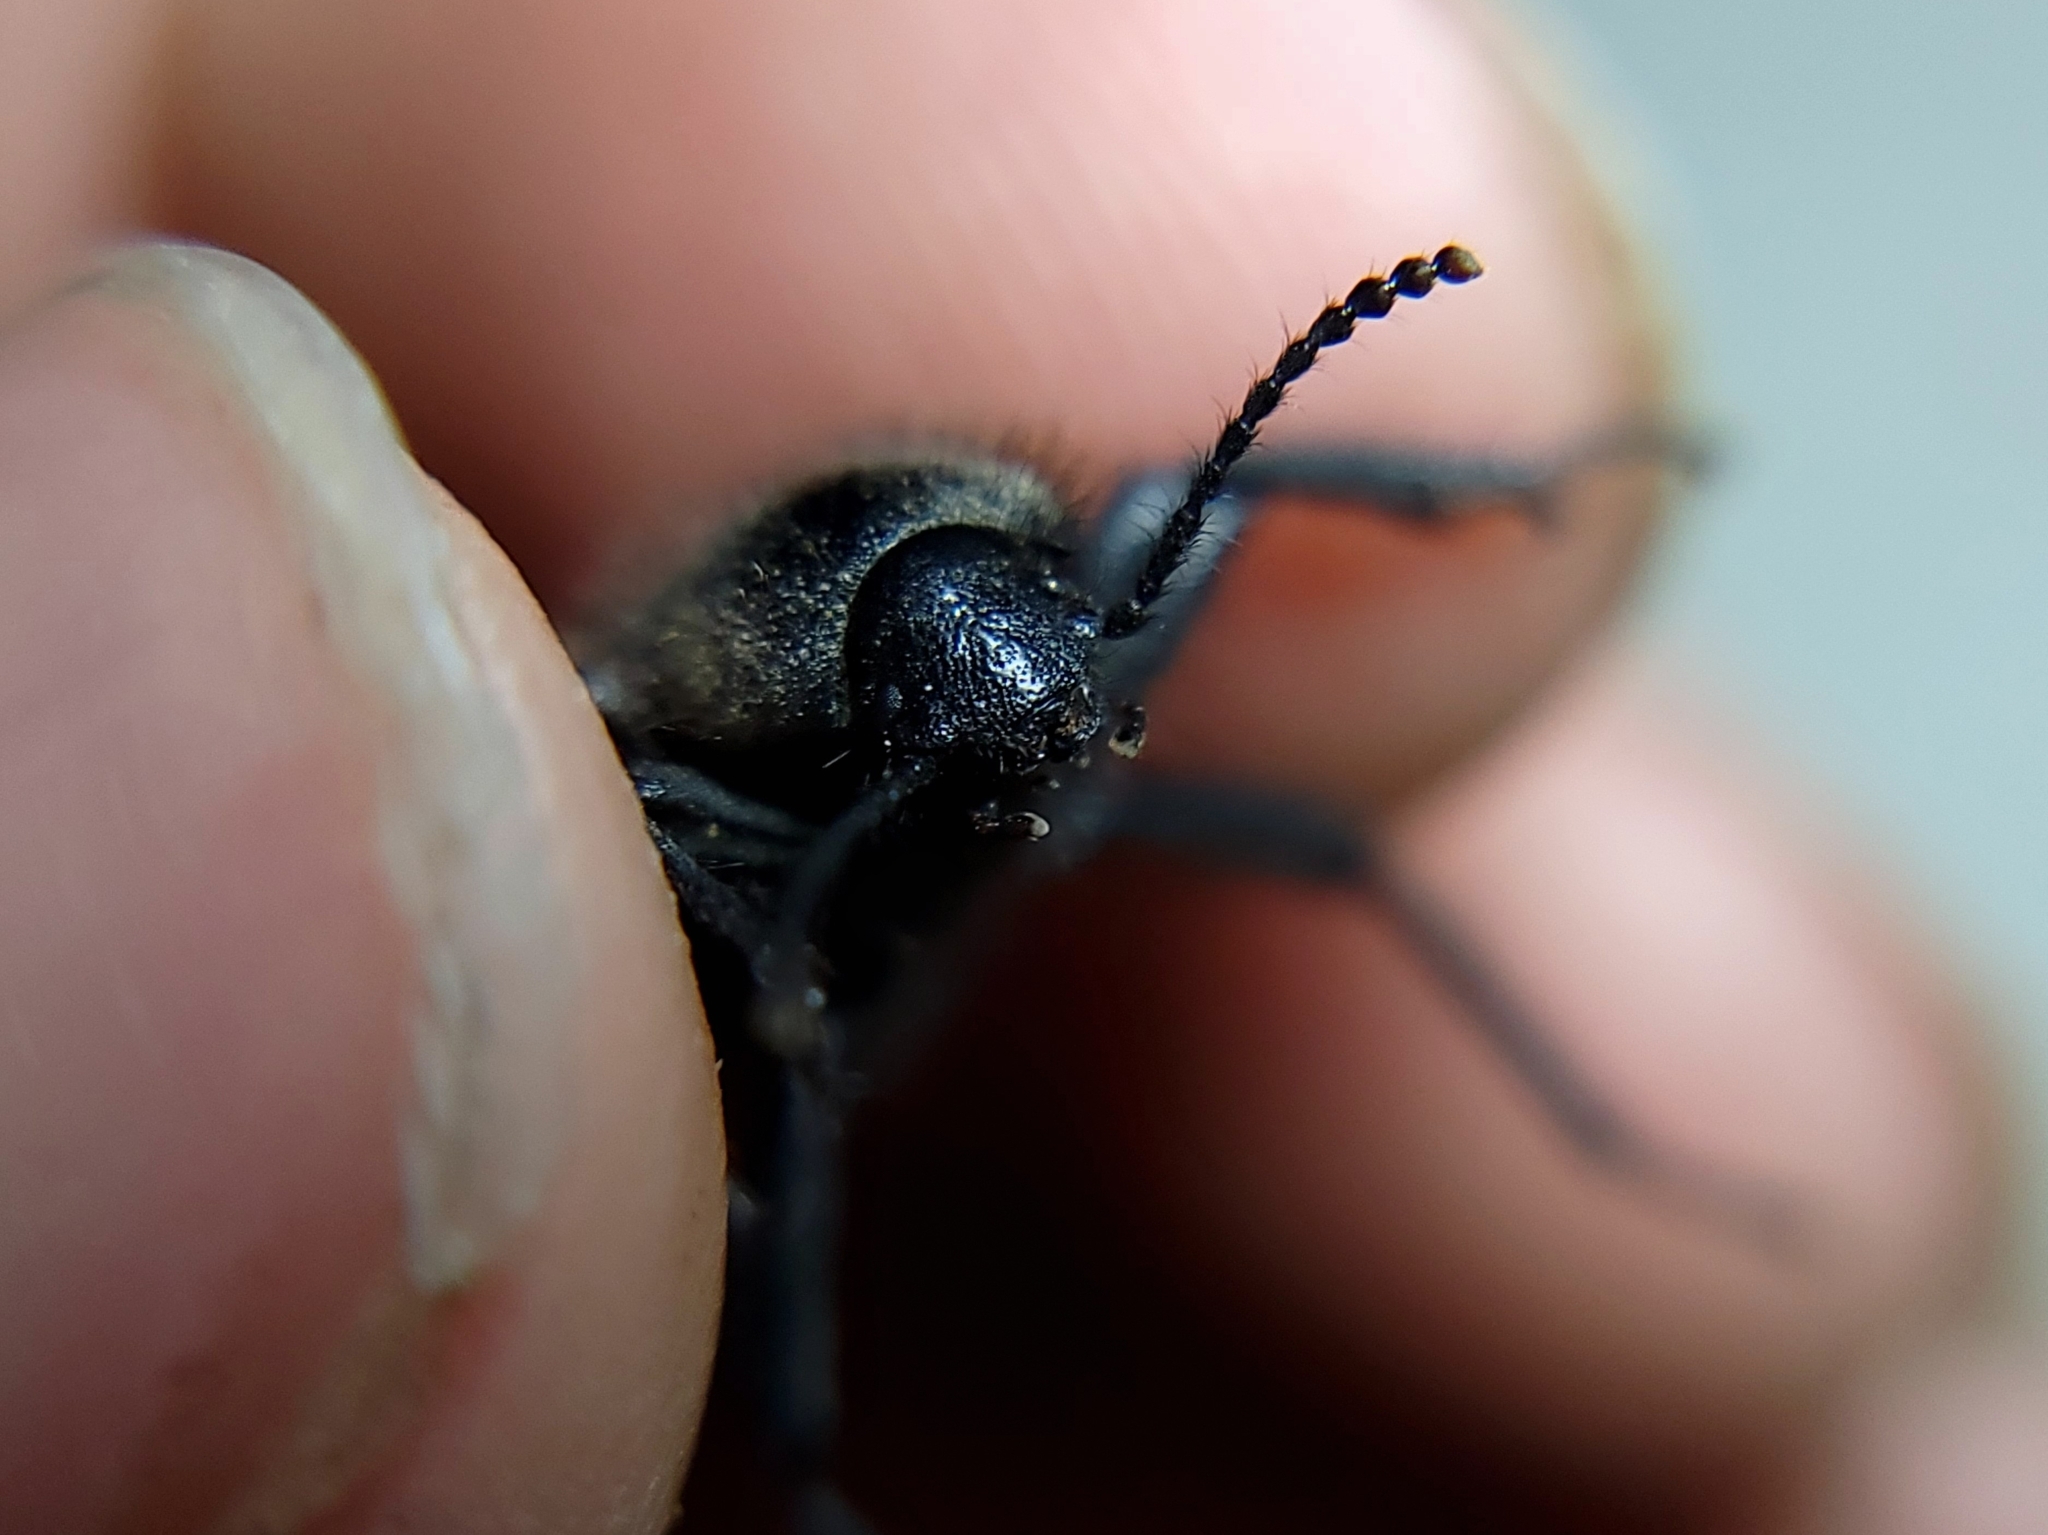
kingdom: Animalia
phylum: Arthropoda
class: Insecta
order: Coleoptera
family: Tenebrionidae
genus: Eleodes
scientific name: Eleodes osculans
